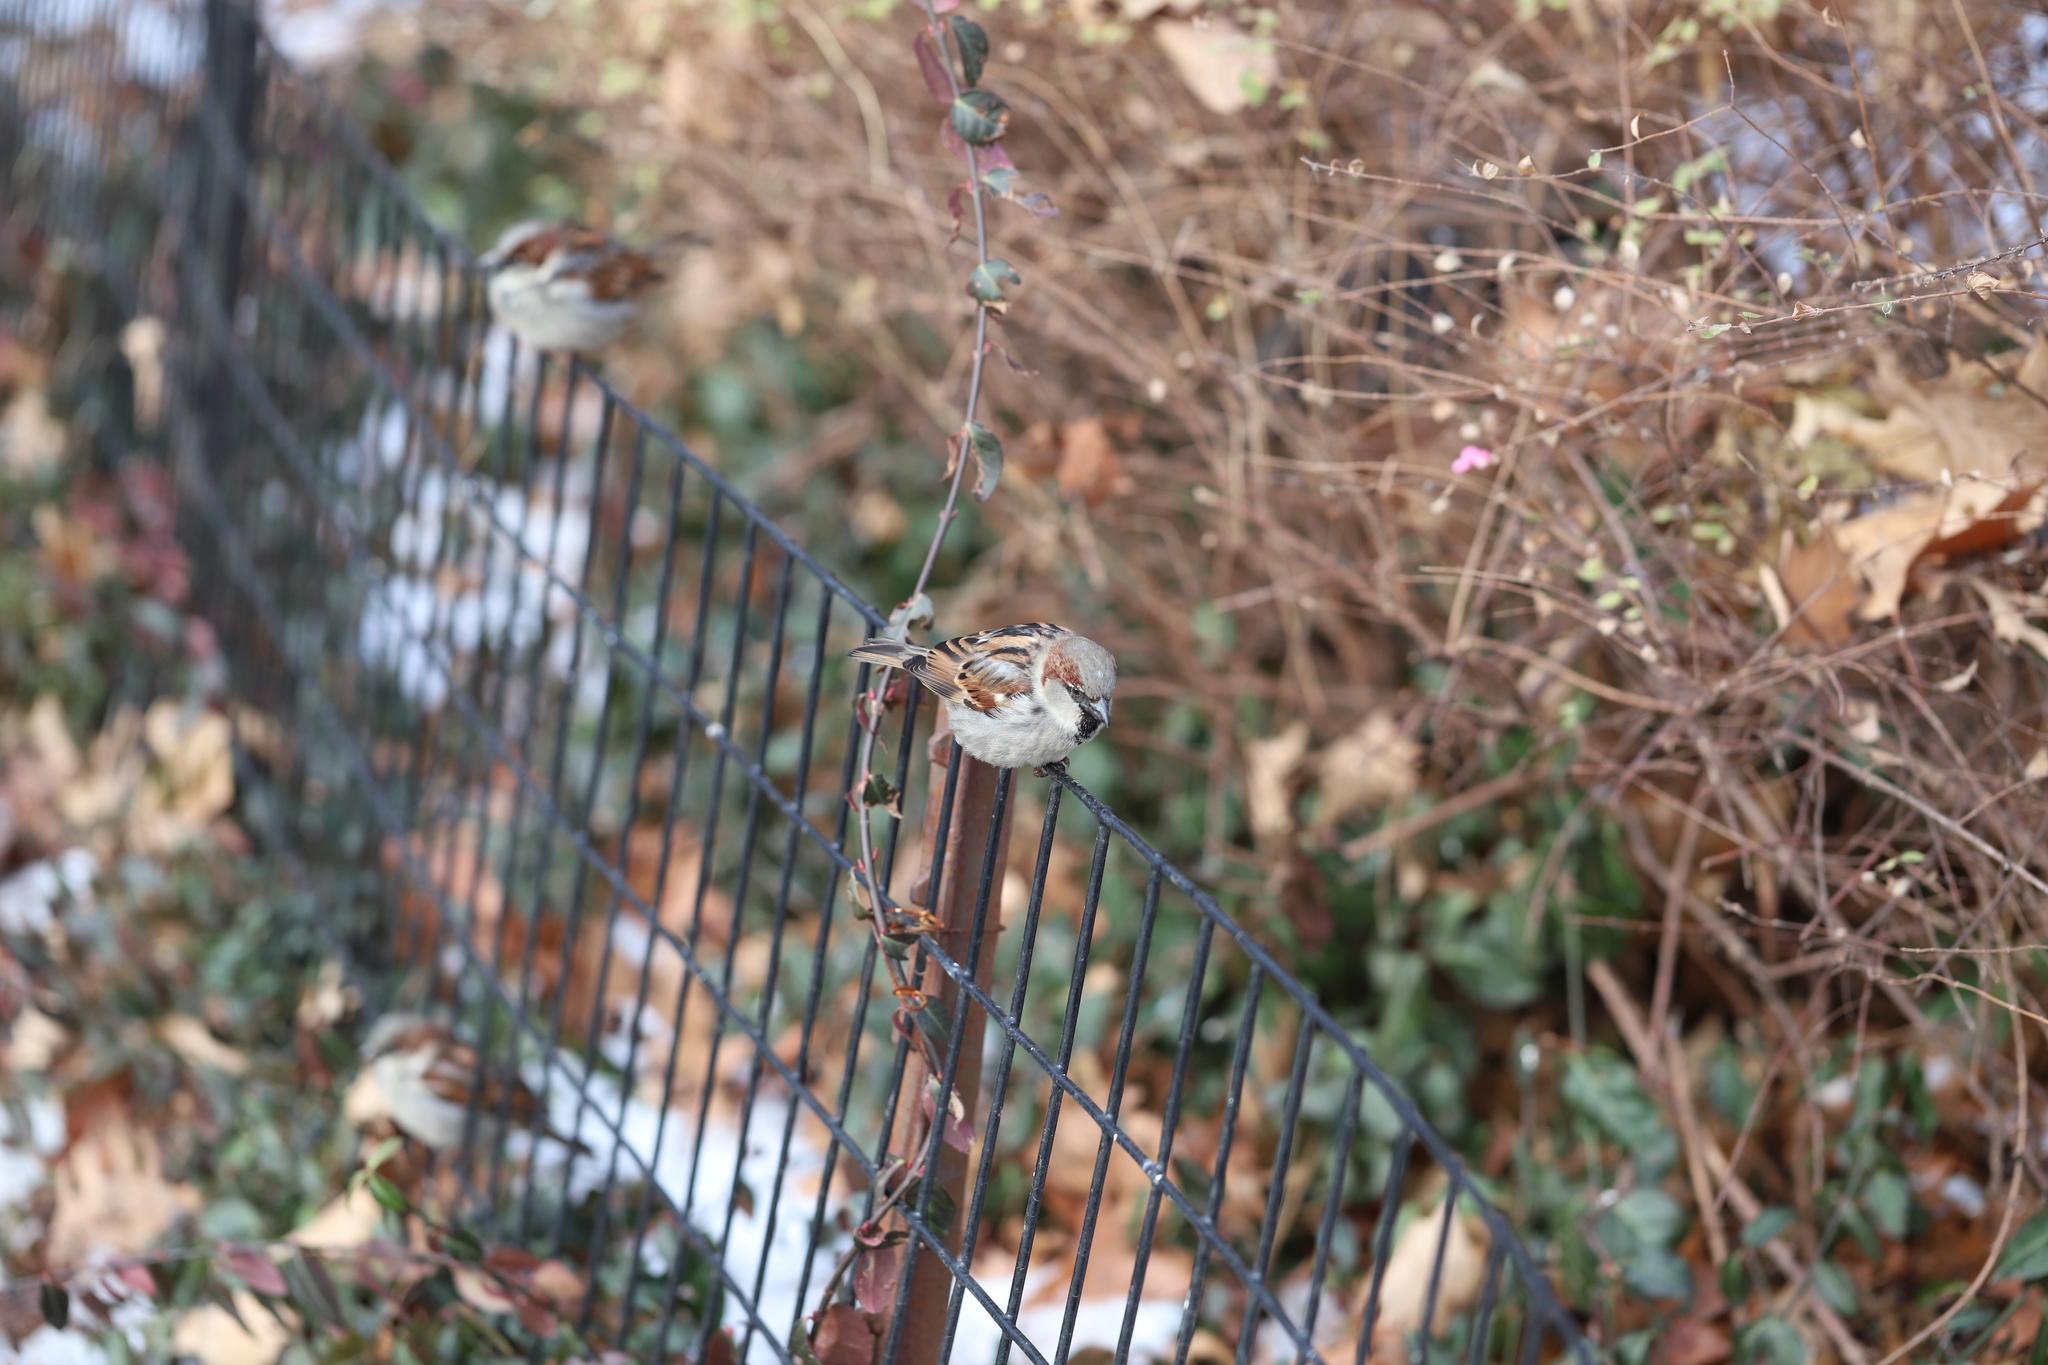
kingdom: Animalia
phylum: Chordata
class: Aves
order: Passeriformes
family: Passeridae
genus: Passer
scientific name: Passer domesticus
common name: House sparrow
